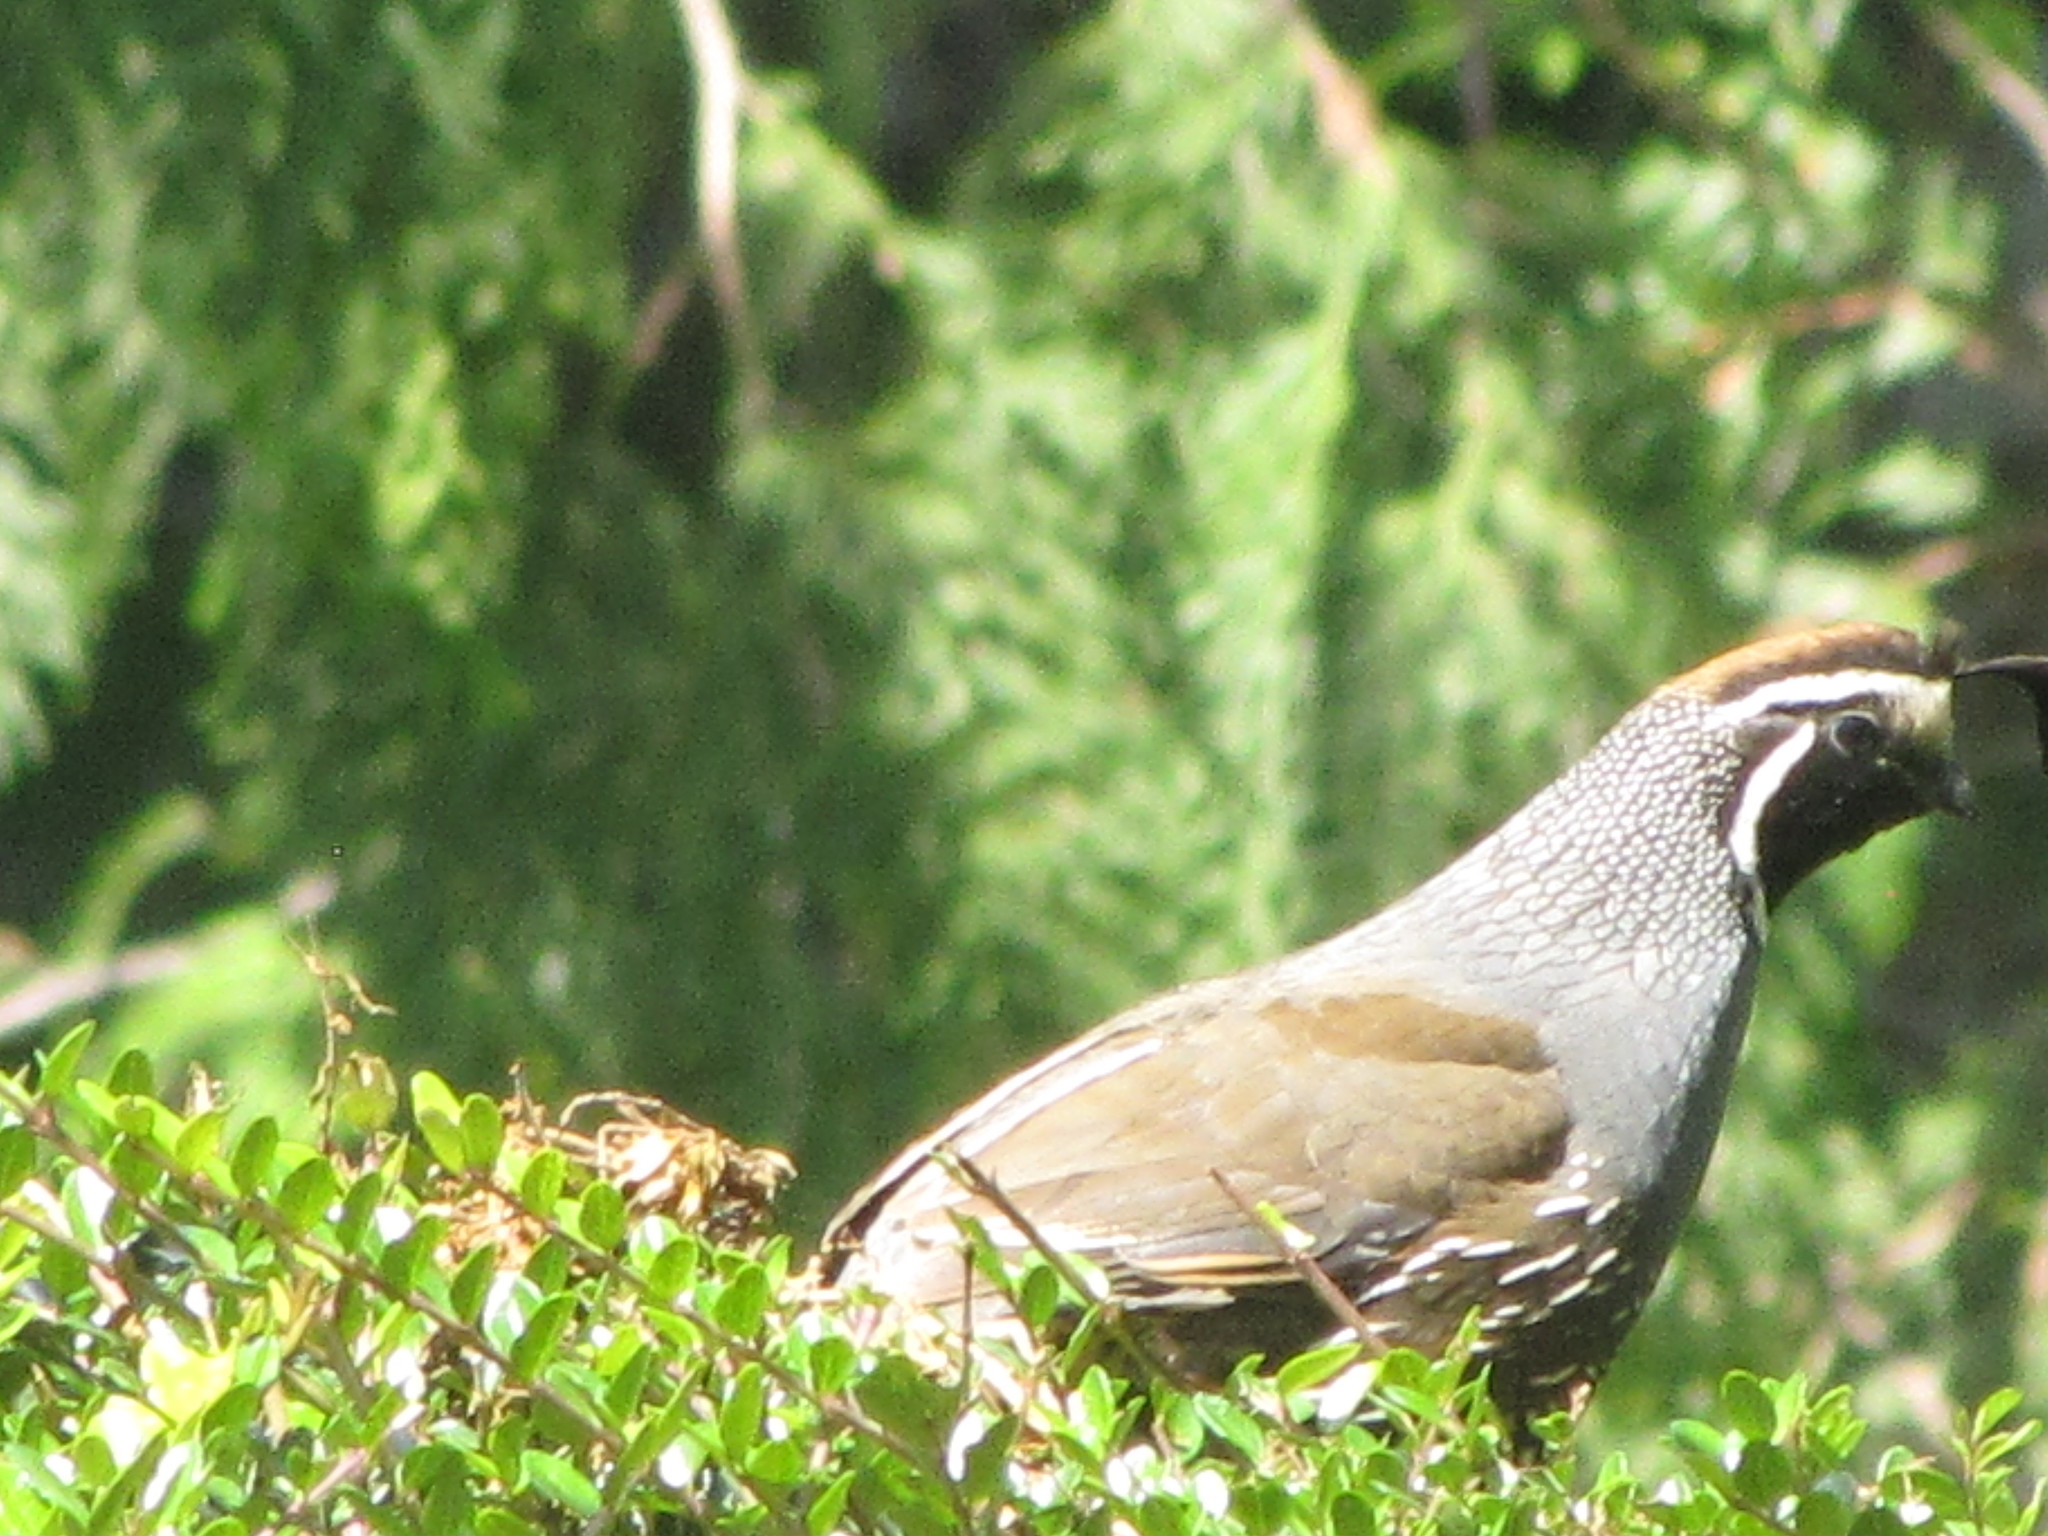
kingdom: Animalia
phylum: Chordata
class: Aves
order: Galliformes
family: Odontophoridae
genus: Callipepla
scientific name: Callipepla californica
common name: California quail
